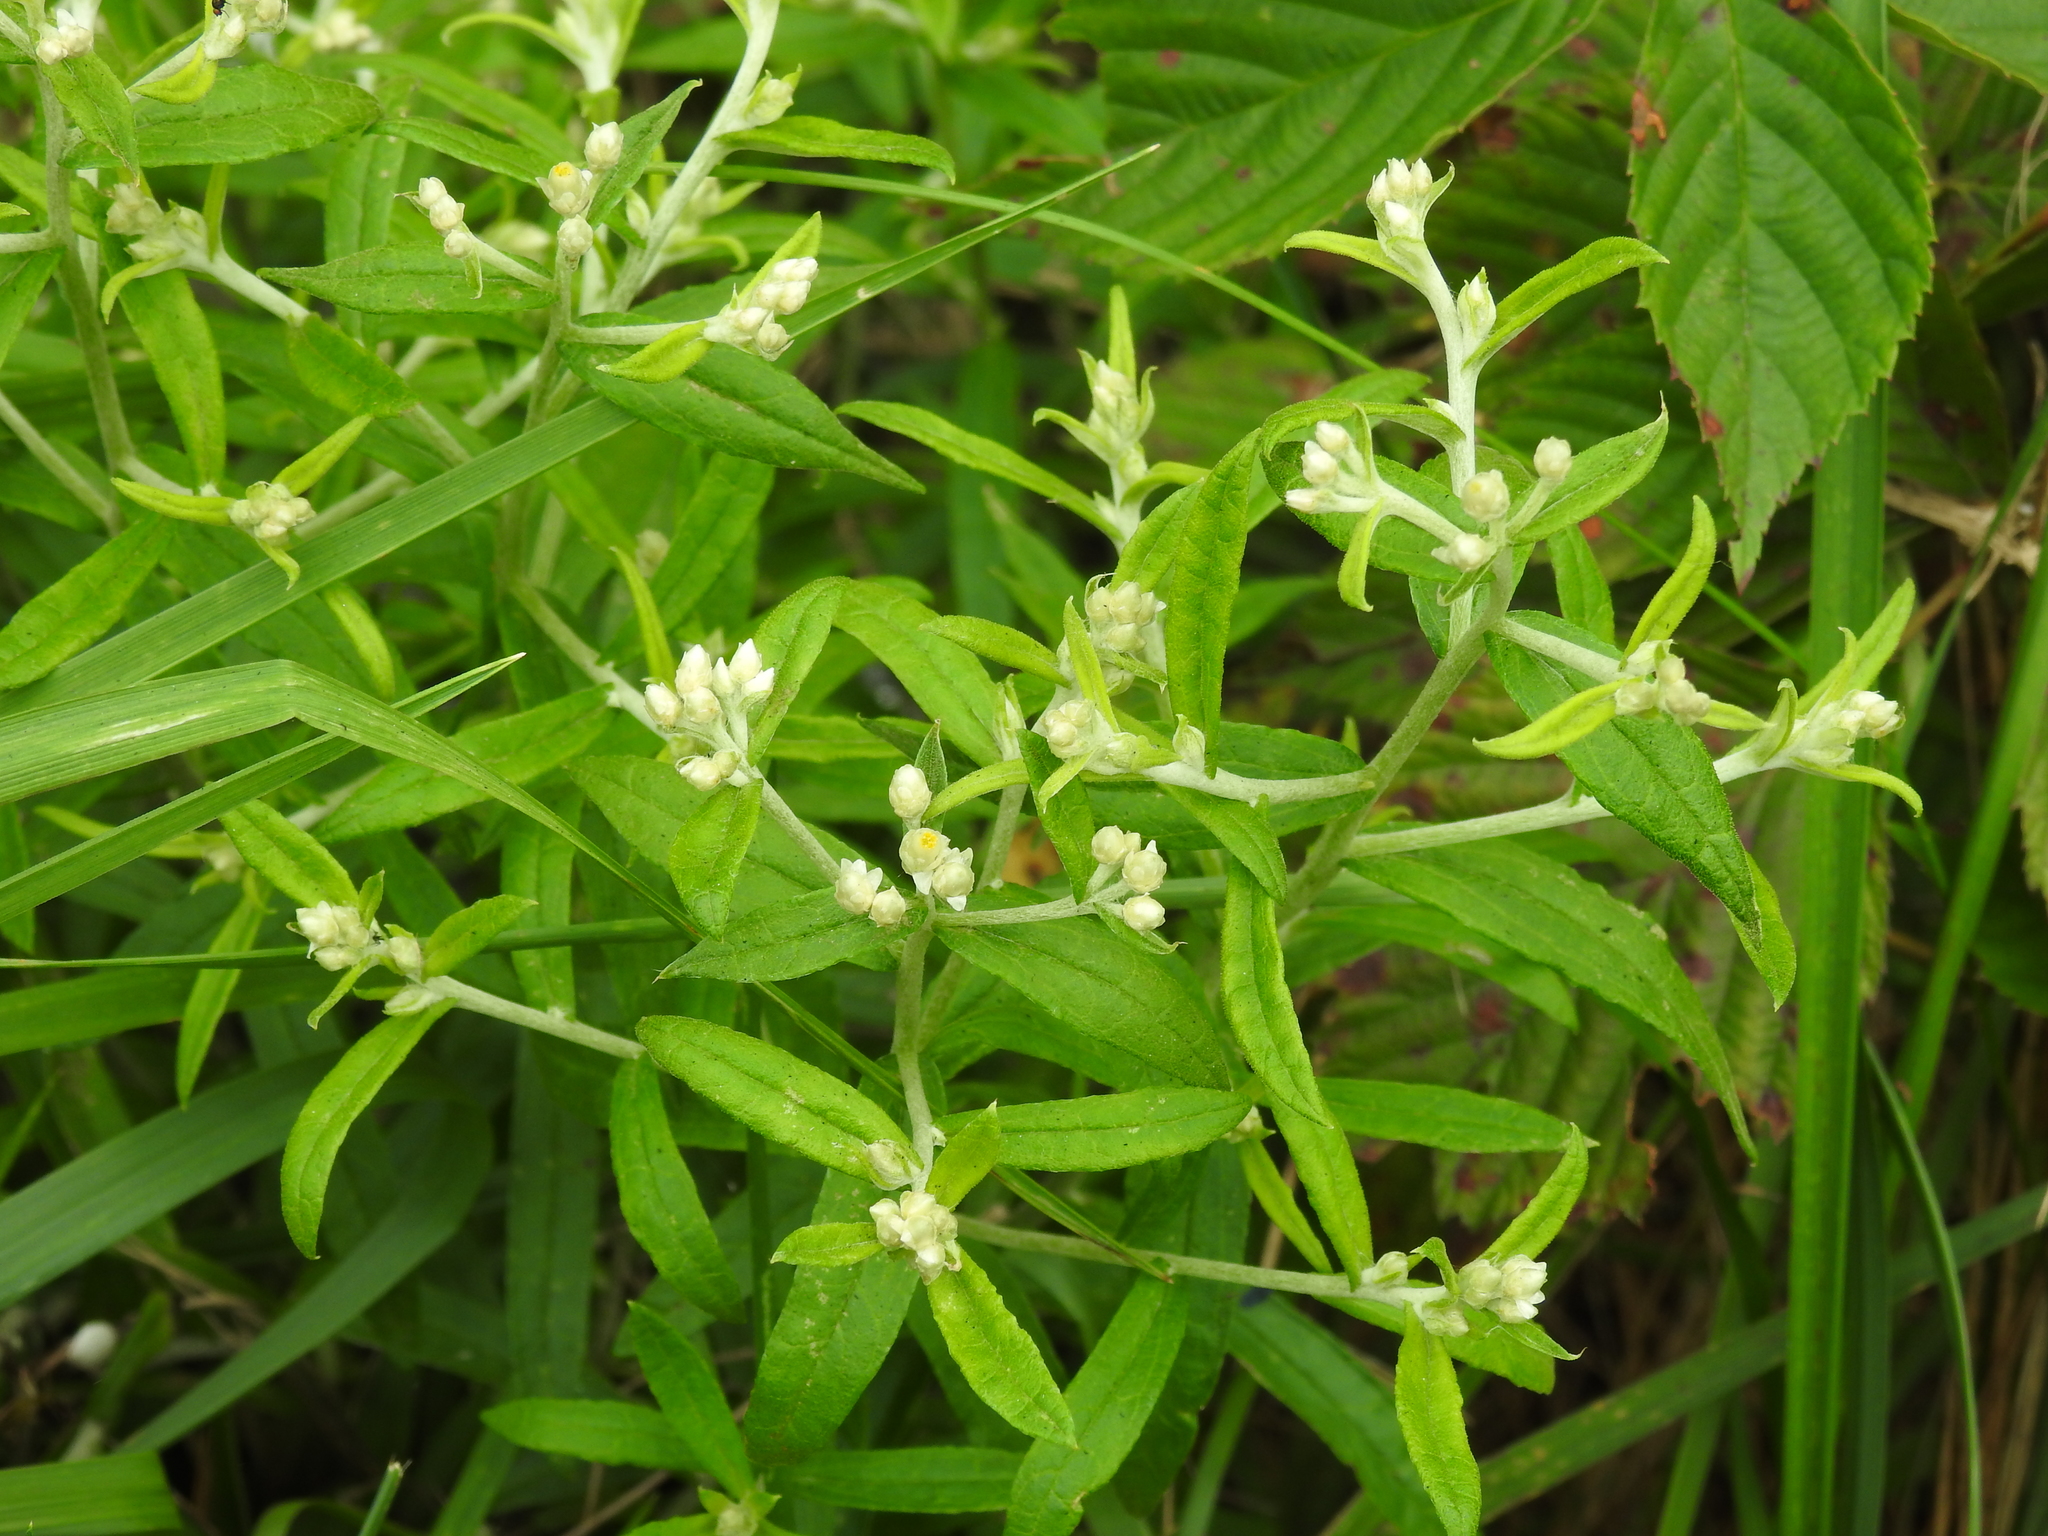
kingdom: Plantae
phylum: Tracheophyta
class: Magnoliopsida
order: Asterales
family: Asteraceae
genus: Pseudognaphalium
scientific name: Pseudognaphalium obtusifolium
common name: Eastern rabbit-tobacco
